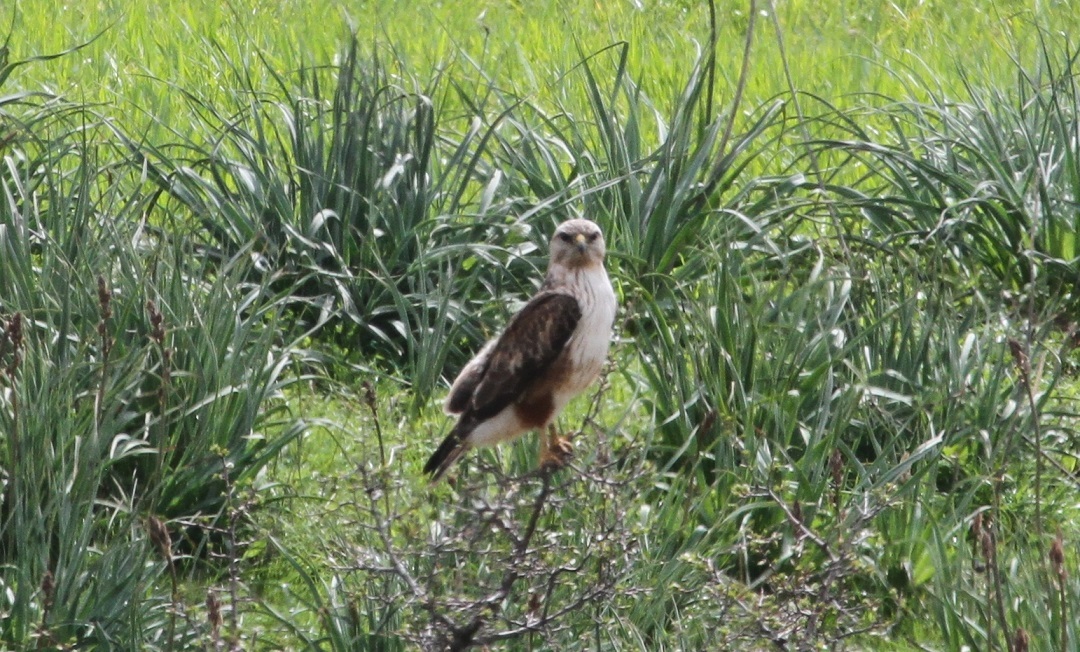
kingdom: Animalia
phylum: Chordata
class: Aves
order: Accipitriformes
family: Accipitridae
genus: Buteo
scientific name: Buteo rufinus
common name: Long-legged buzzard
